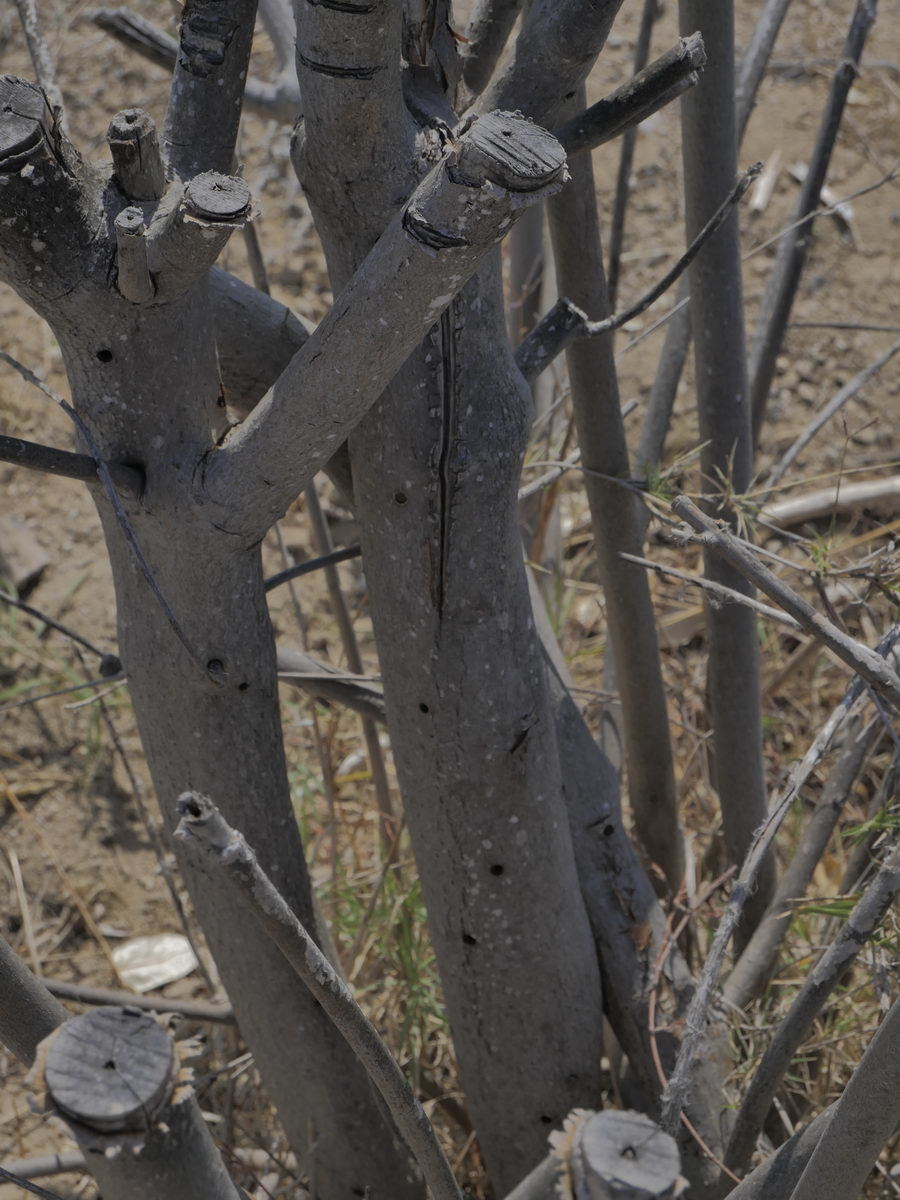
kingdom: Animalia
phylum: Arthropoda
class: Insecta
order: Coleoptera
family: Cerambycidae
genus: Xylotrechus
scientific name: Xylotrechus smei
